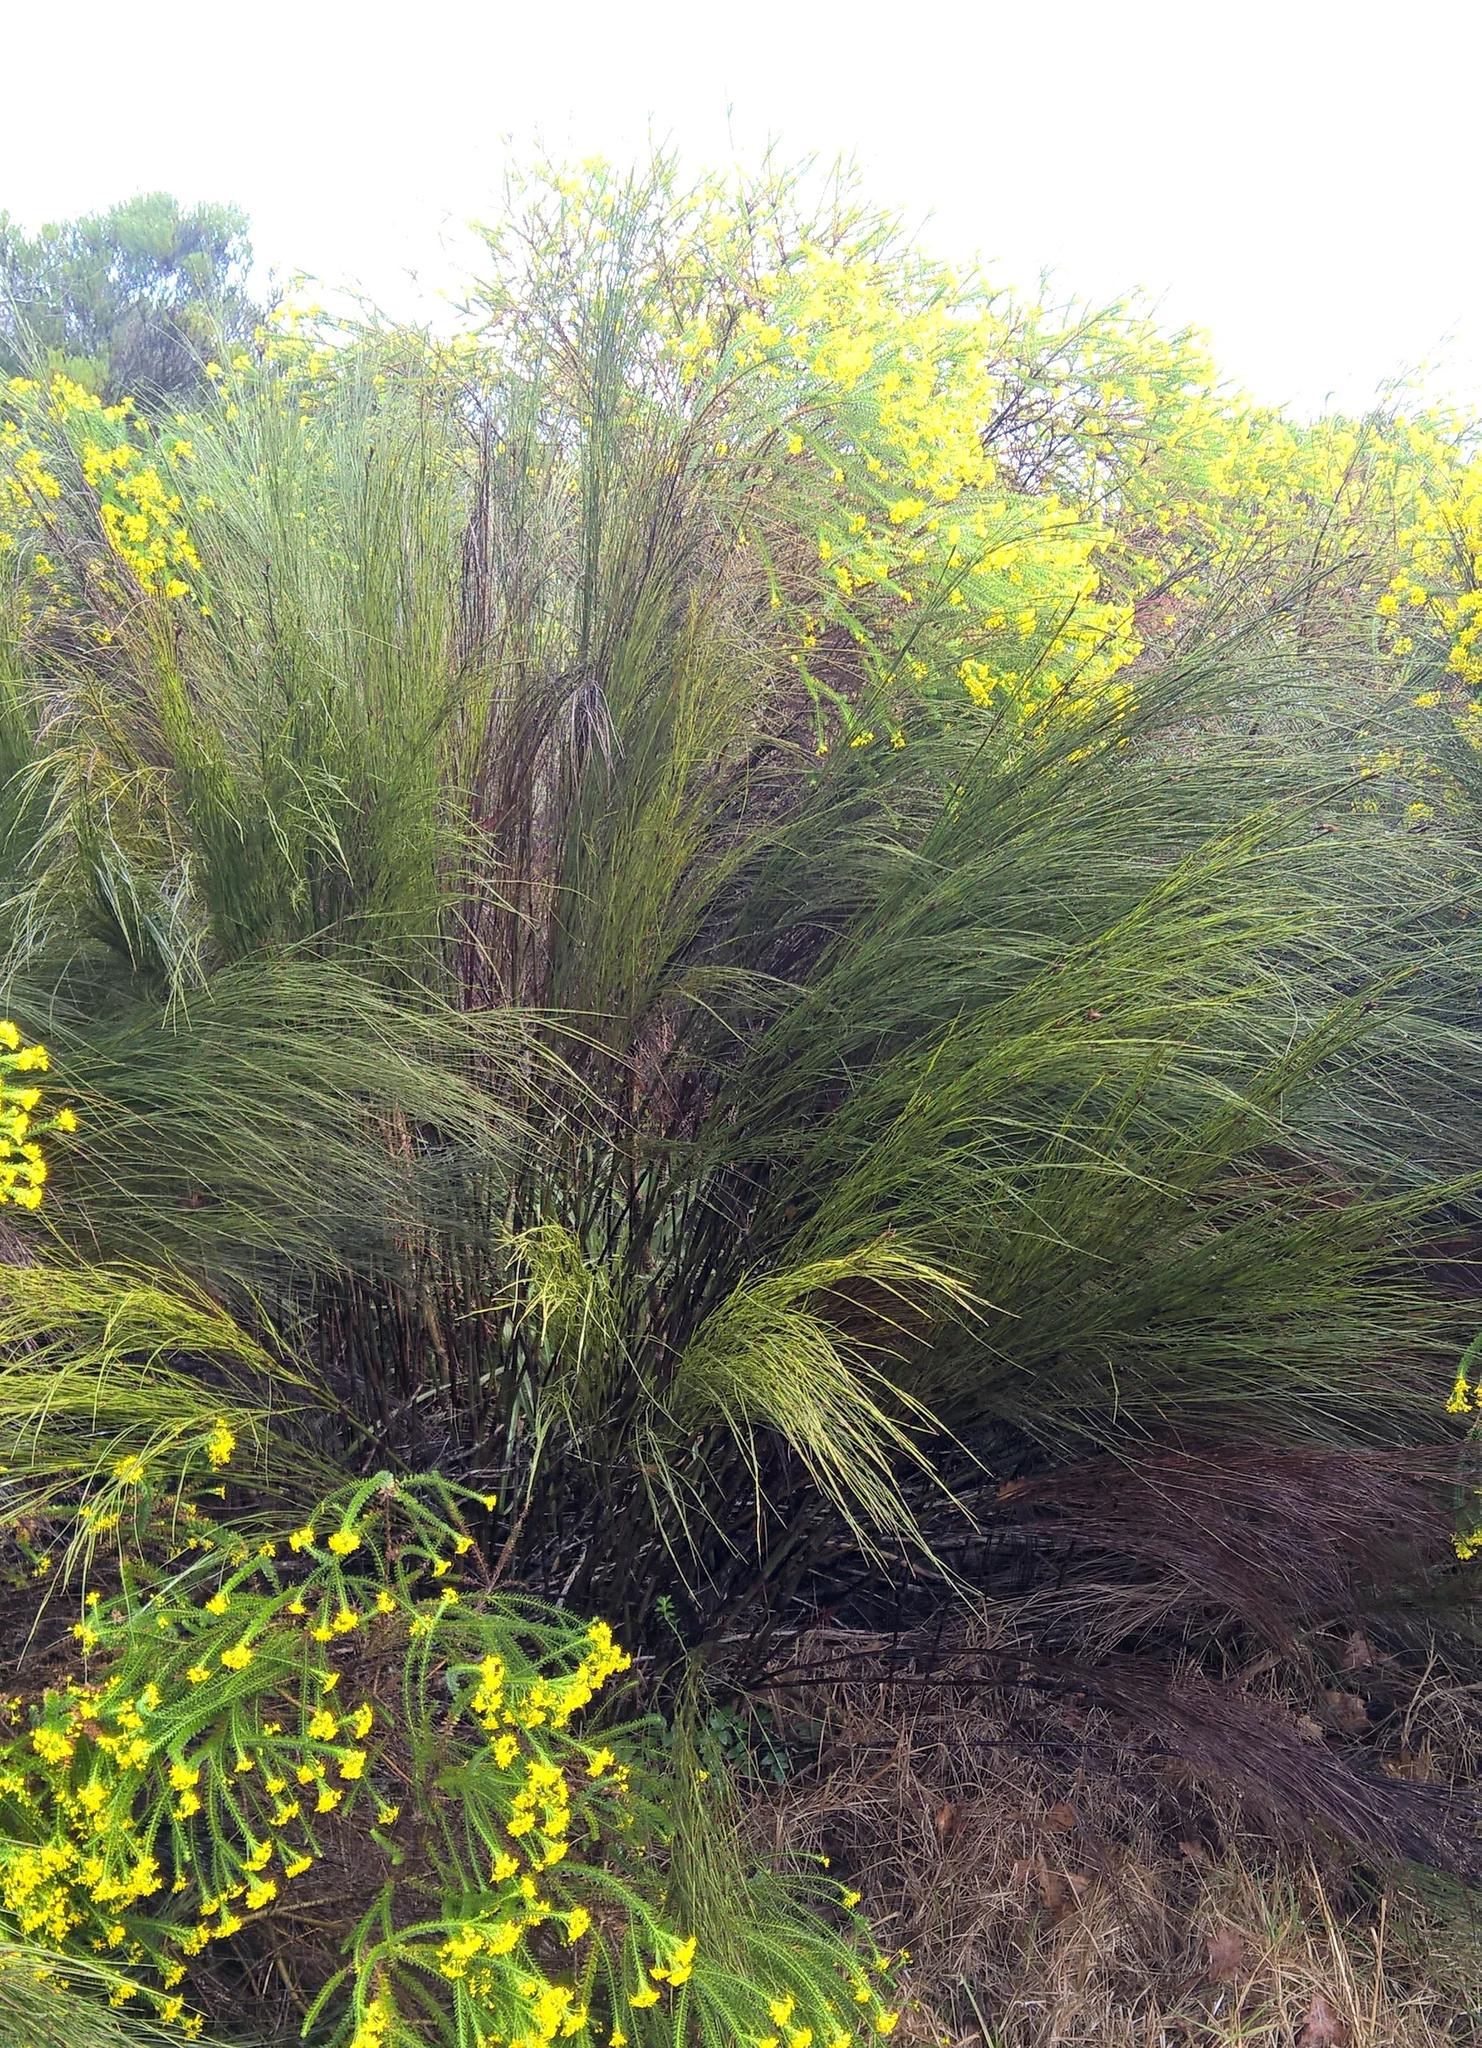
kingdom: Plantae
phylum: Tracheophyta
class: Liliopsida
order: Poales
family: Restionaceae
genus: Restio
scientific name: Restio paniculatus
